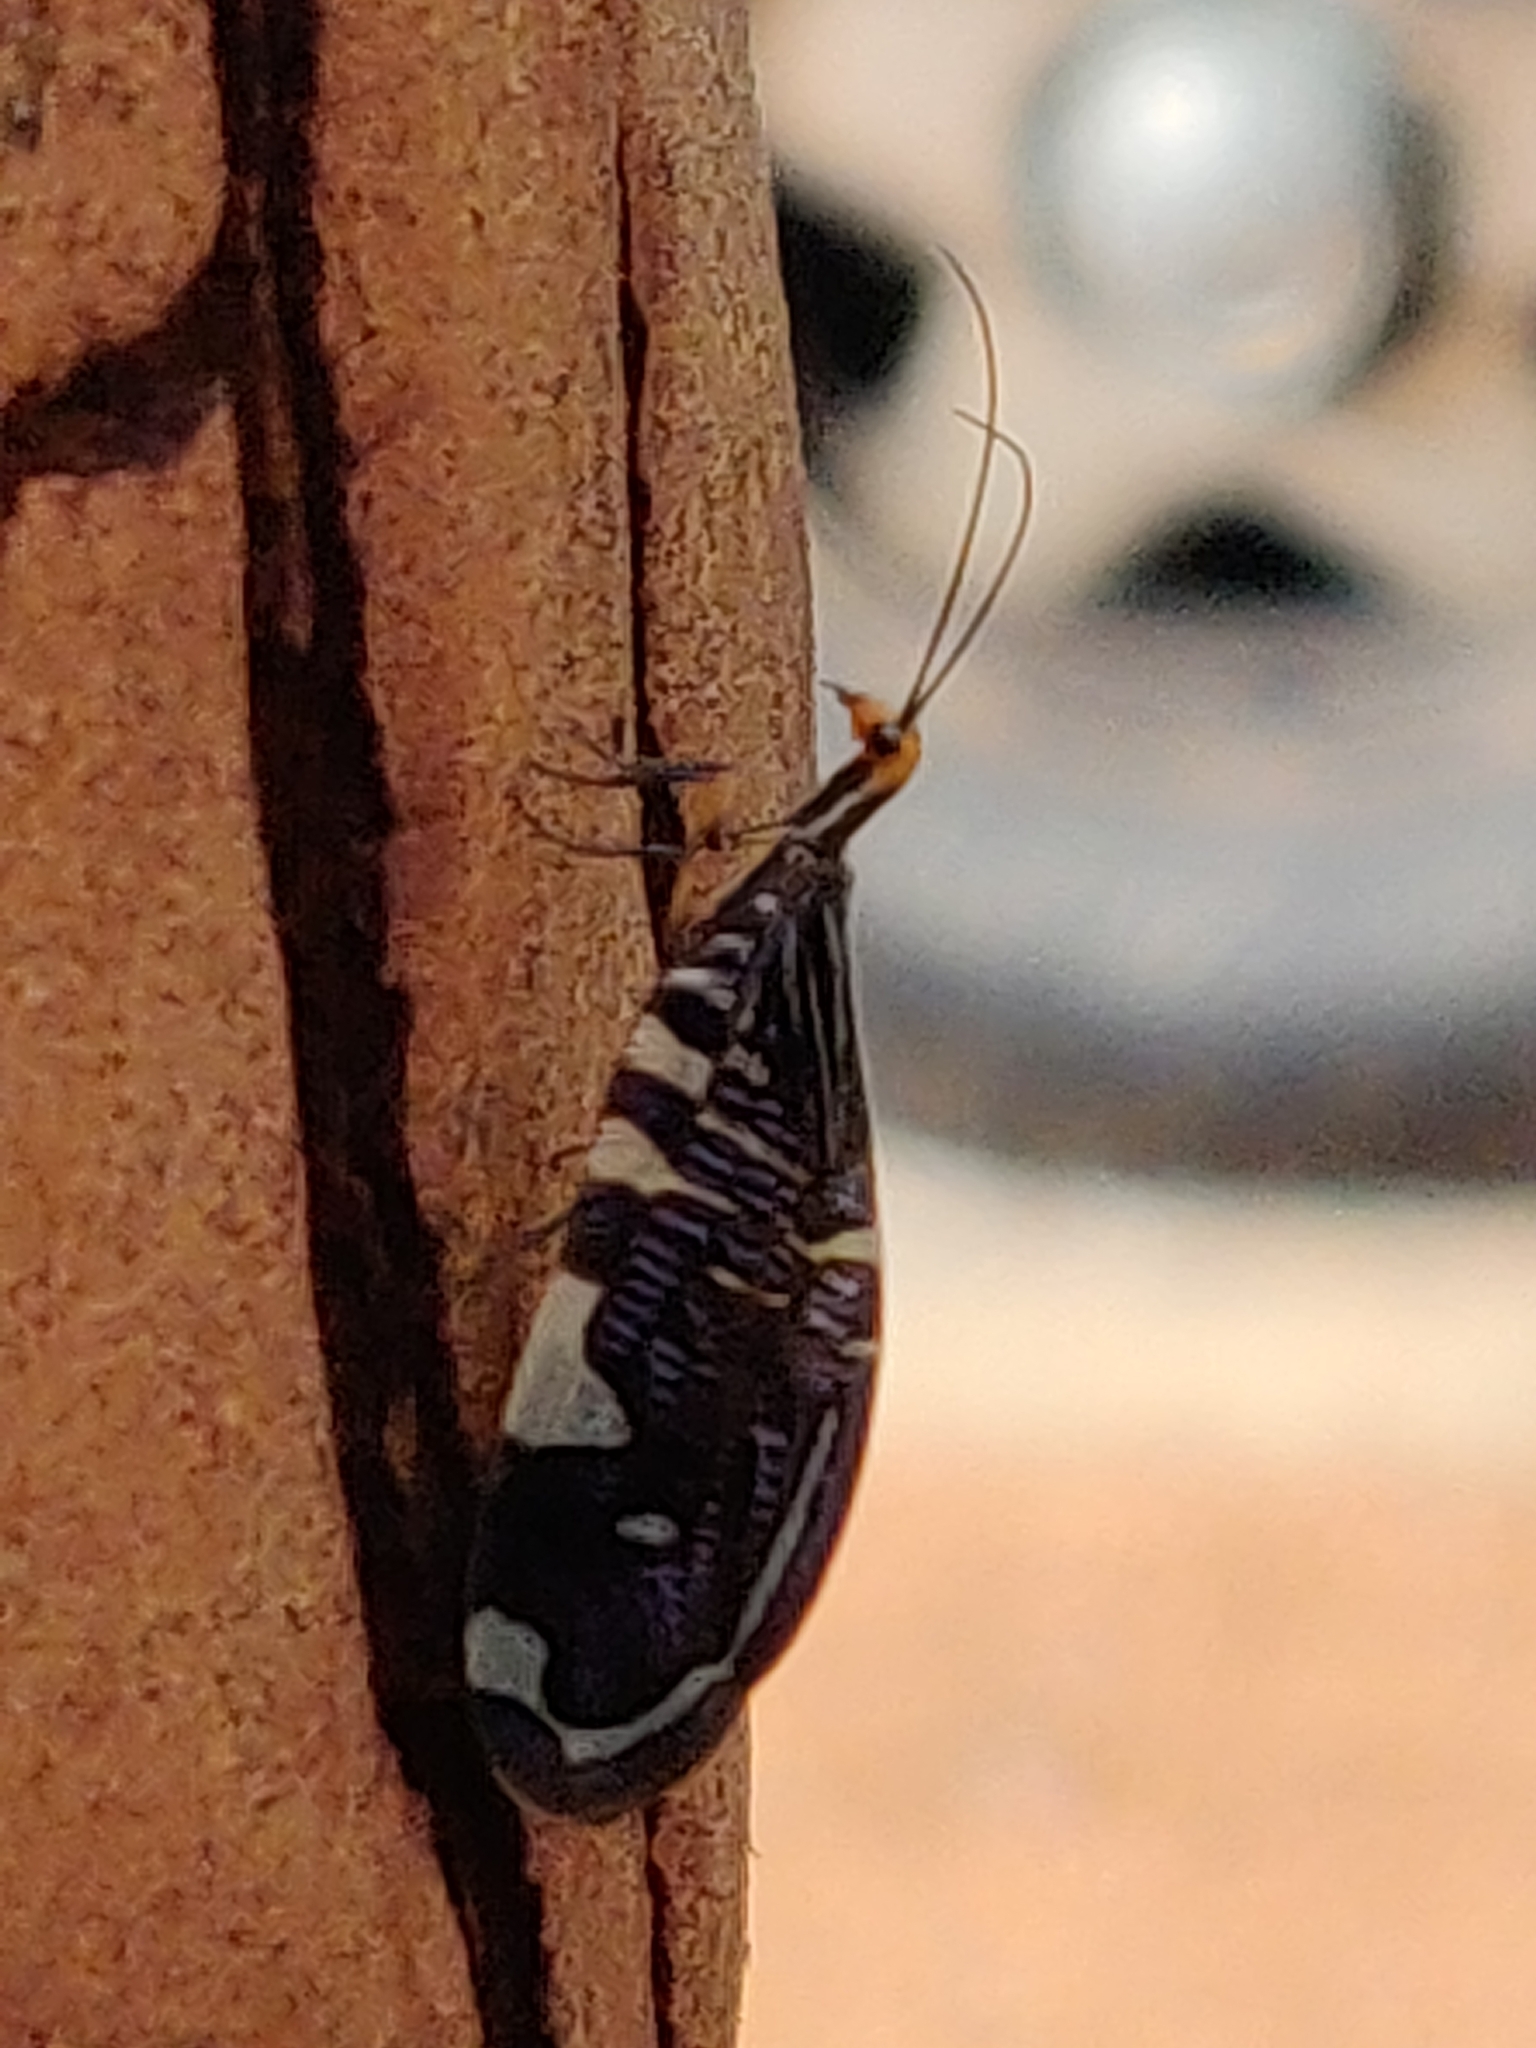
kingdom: Animalia
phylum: Arthropoda
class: Insecta
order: Neuroptera
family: Osmylidae
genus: Porismus
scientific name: Porismus strigatus
